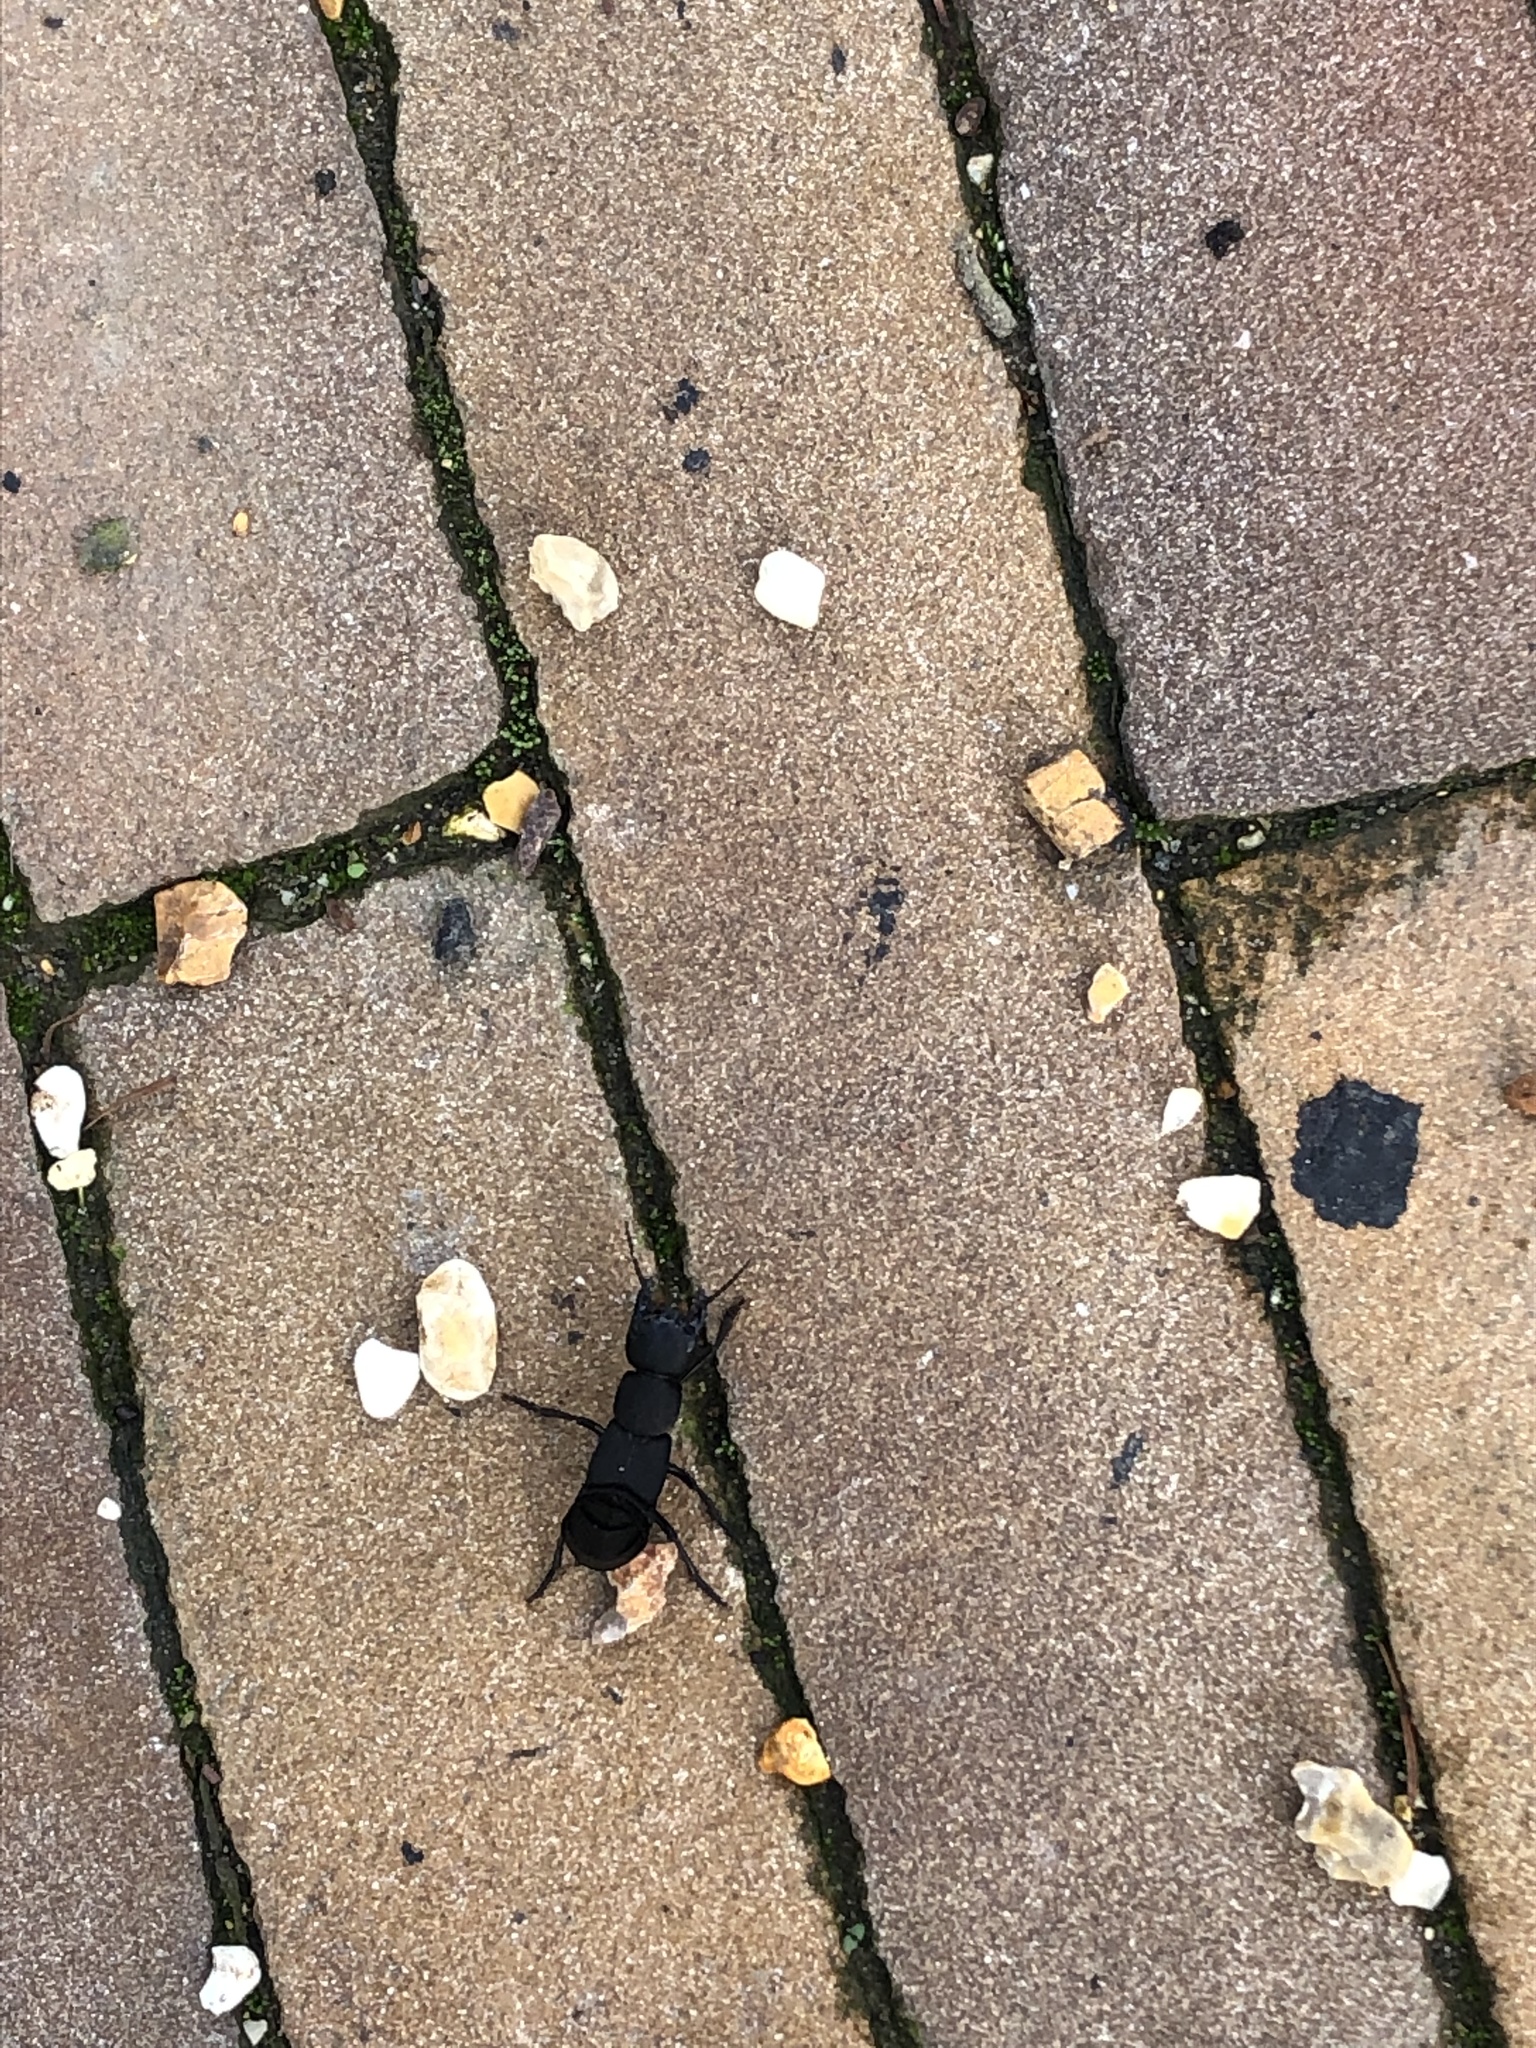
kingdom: Animalia
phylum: Arthropoda
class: Insecta
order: Coleoptera
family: Staphylinidae
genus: Ocypus
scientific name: Ocypus olens
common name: Devil's coach-horse
